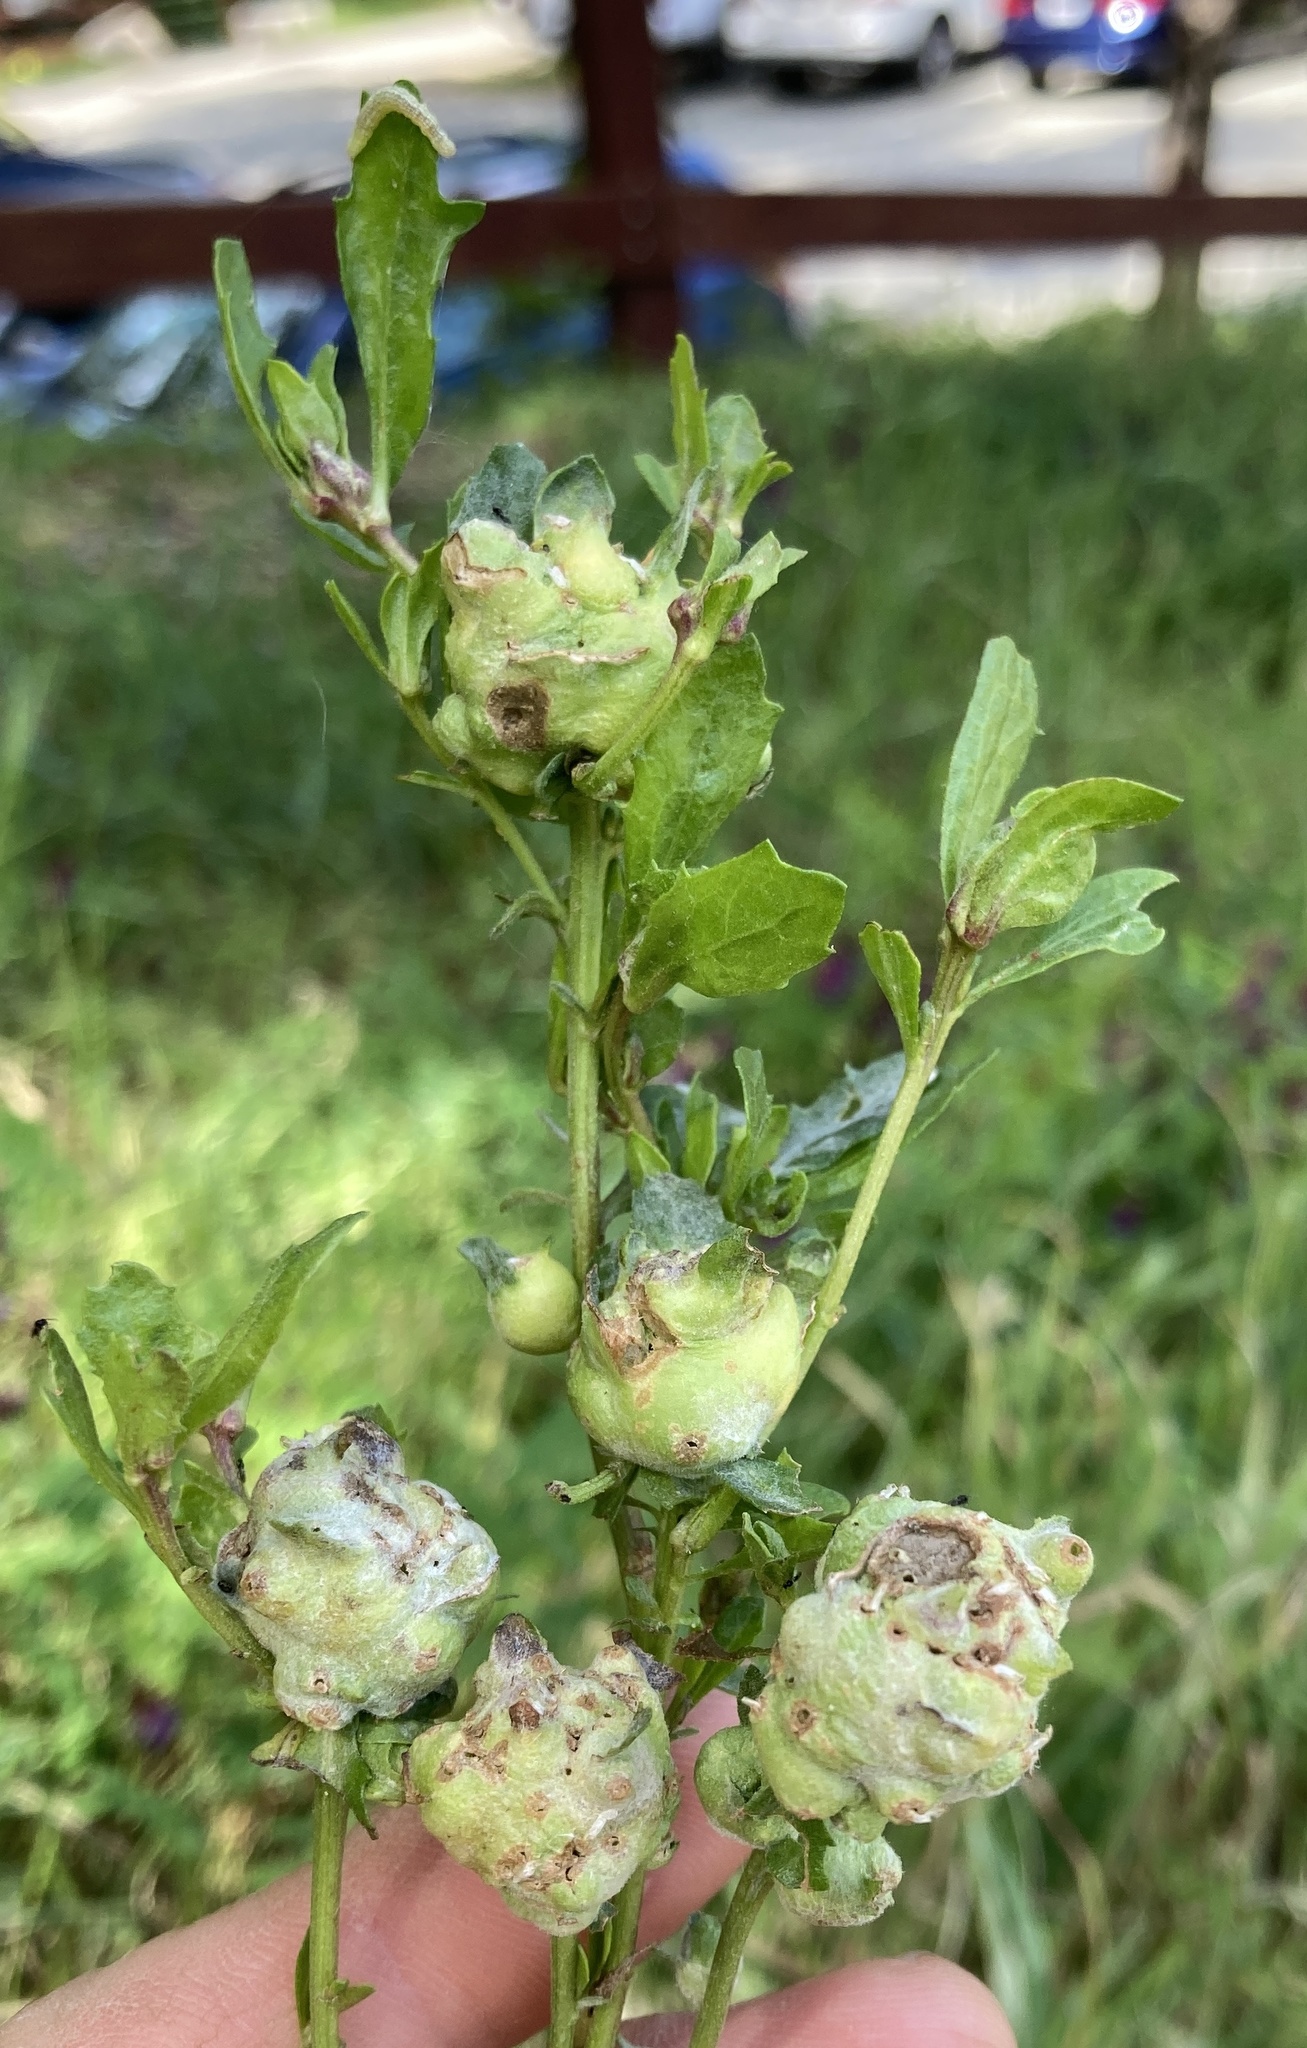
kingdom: Animalia
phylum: Arthropoda
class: Insecta
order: Diptera
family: Cecidomyiidae
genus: Rhopalomyia
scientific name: Rhopalomyia californica
